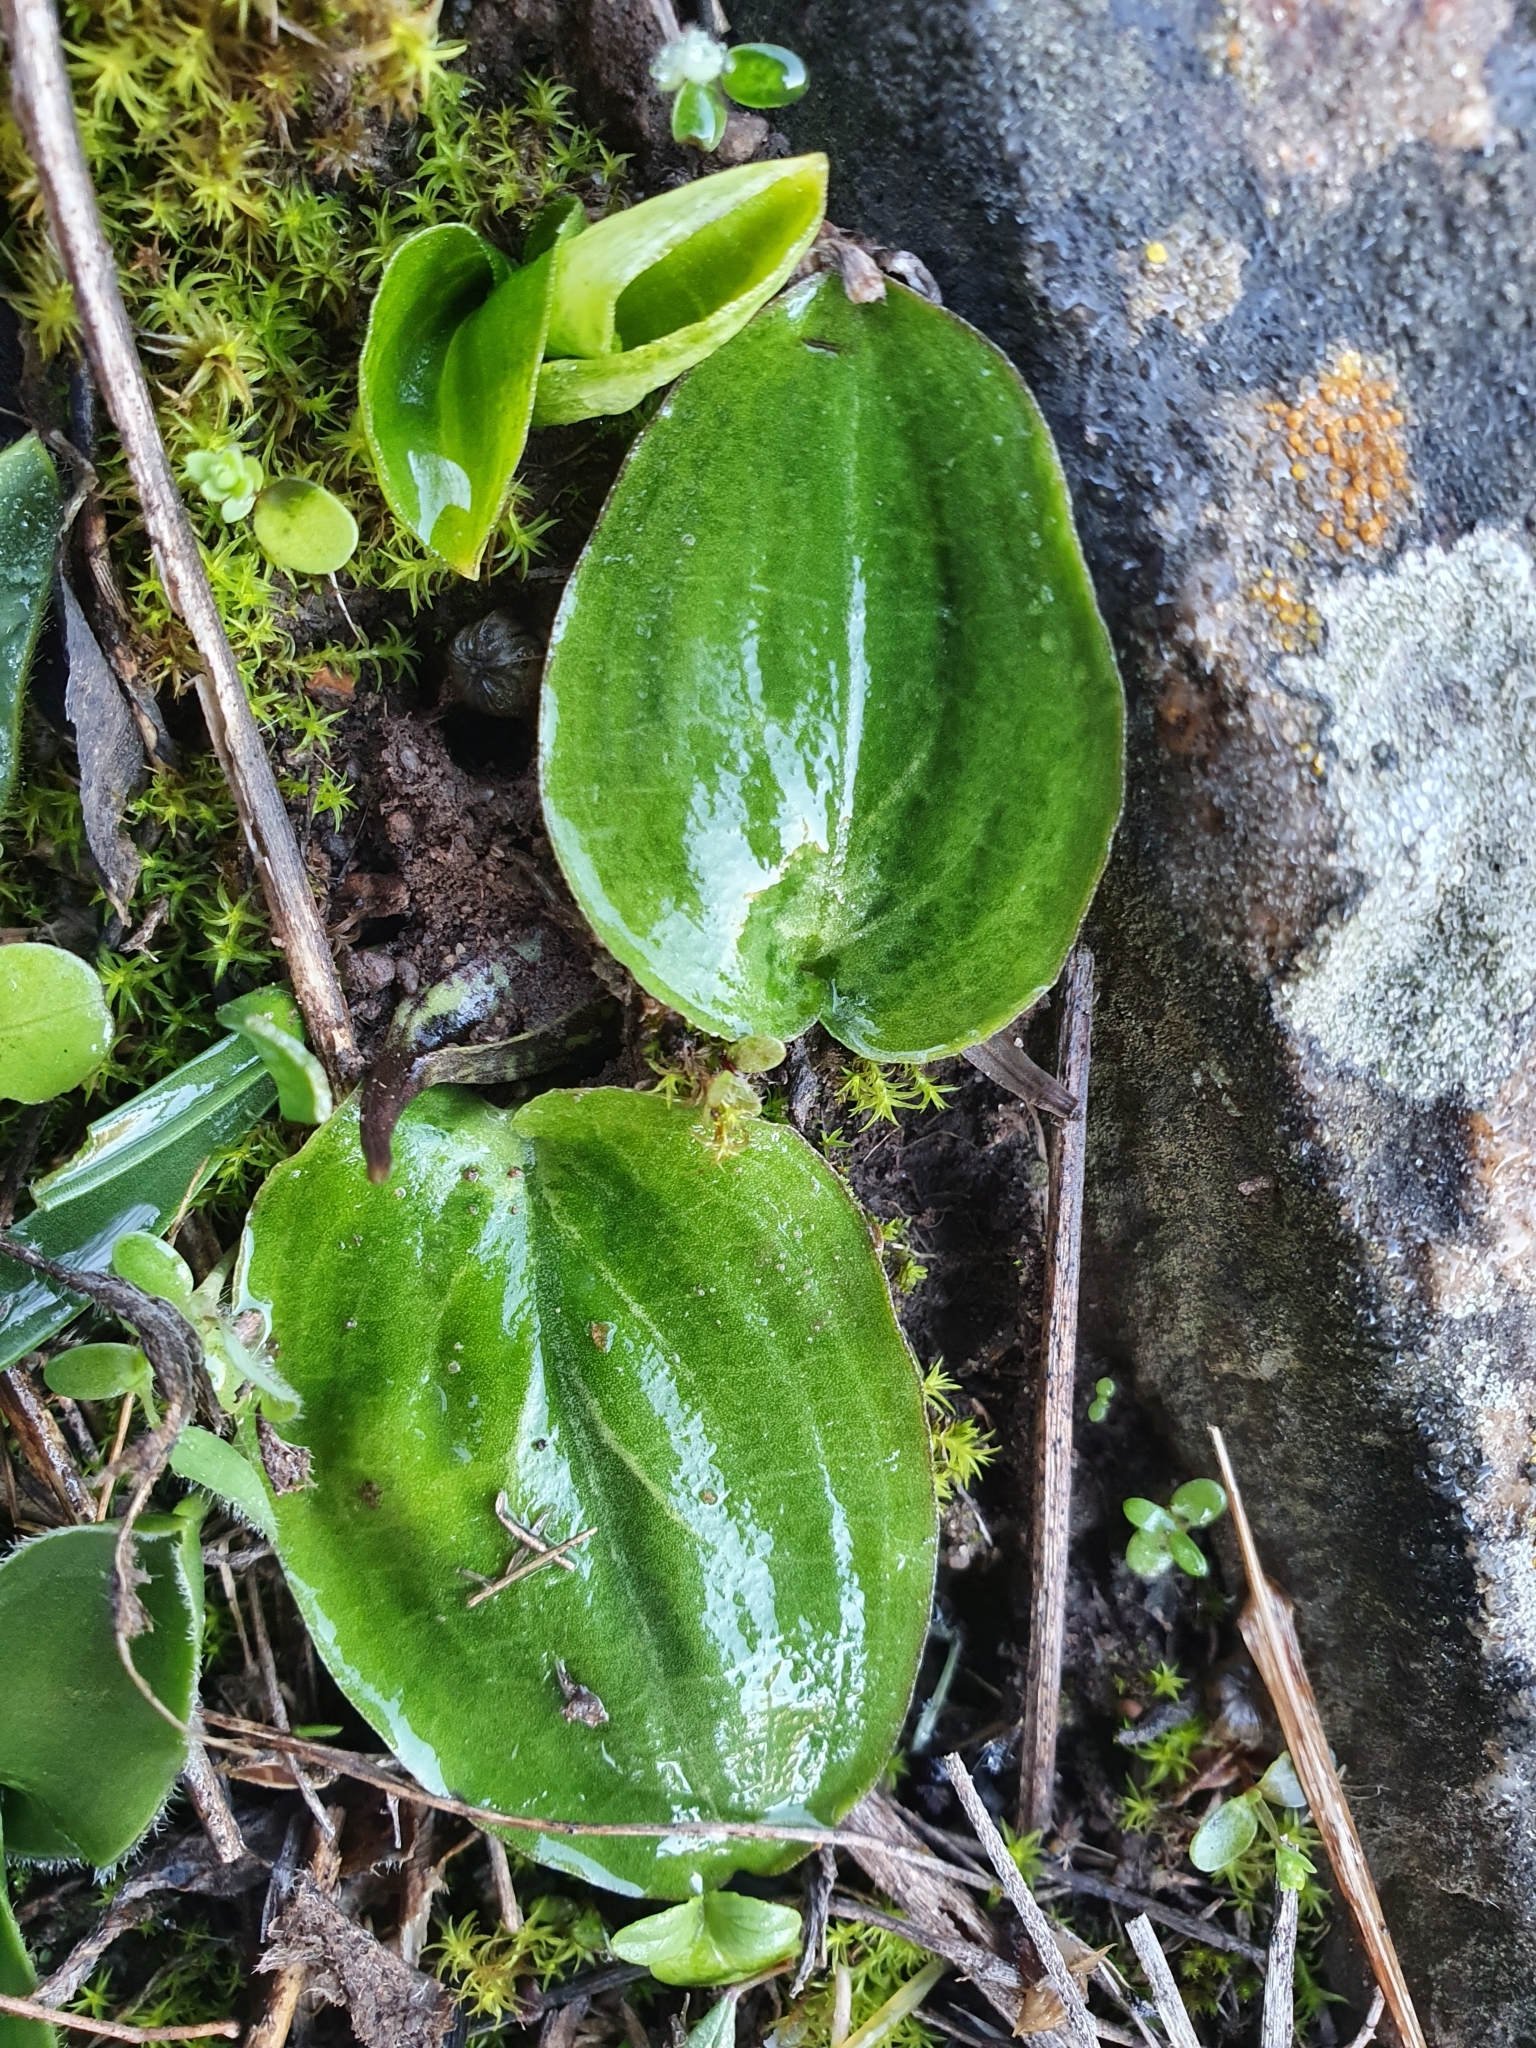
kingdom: Plantae
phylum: Tracheophyta
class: Liliopsida
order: Alismatales
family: Araceae
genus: Ambrosina
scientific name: Ambrosina bassii
